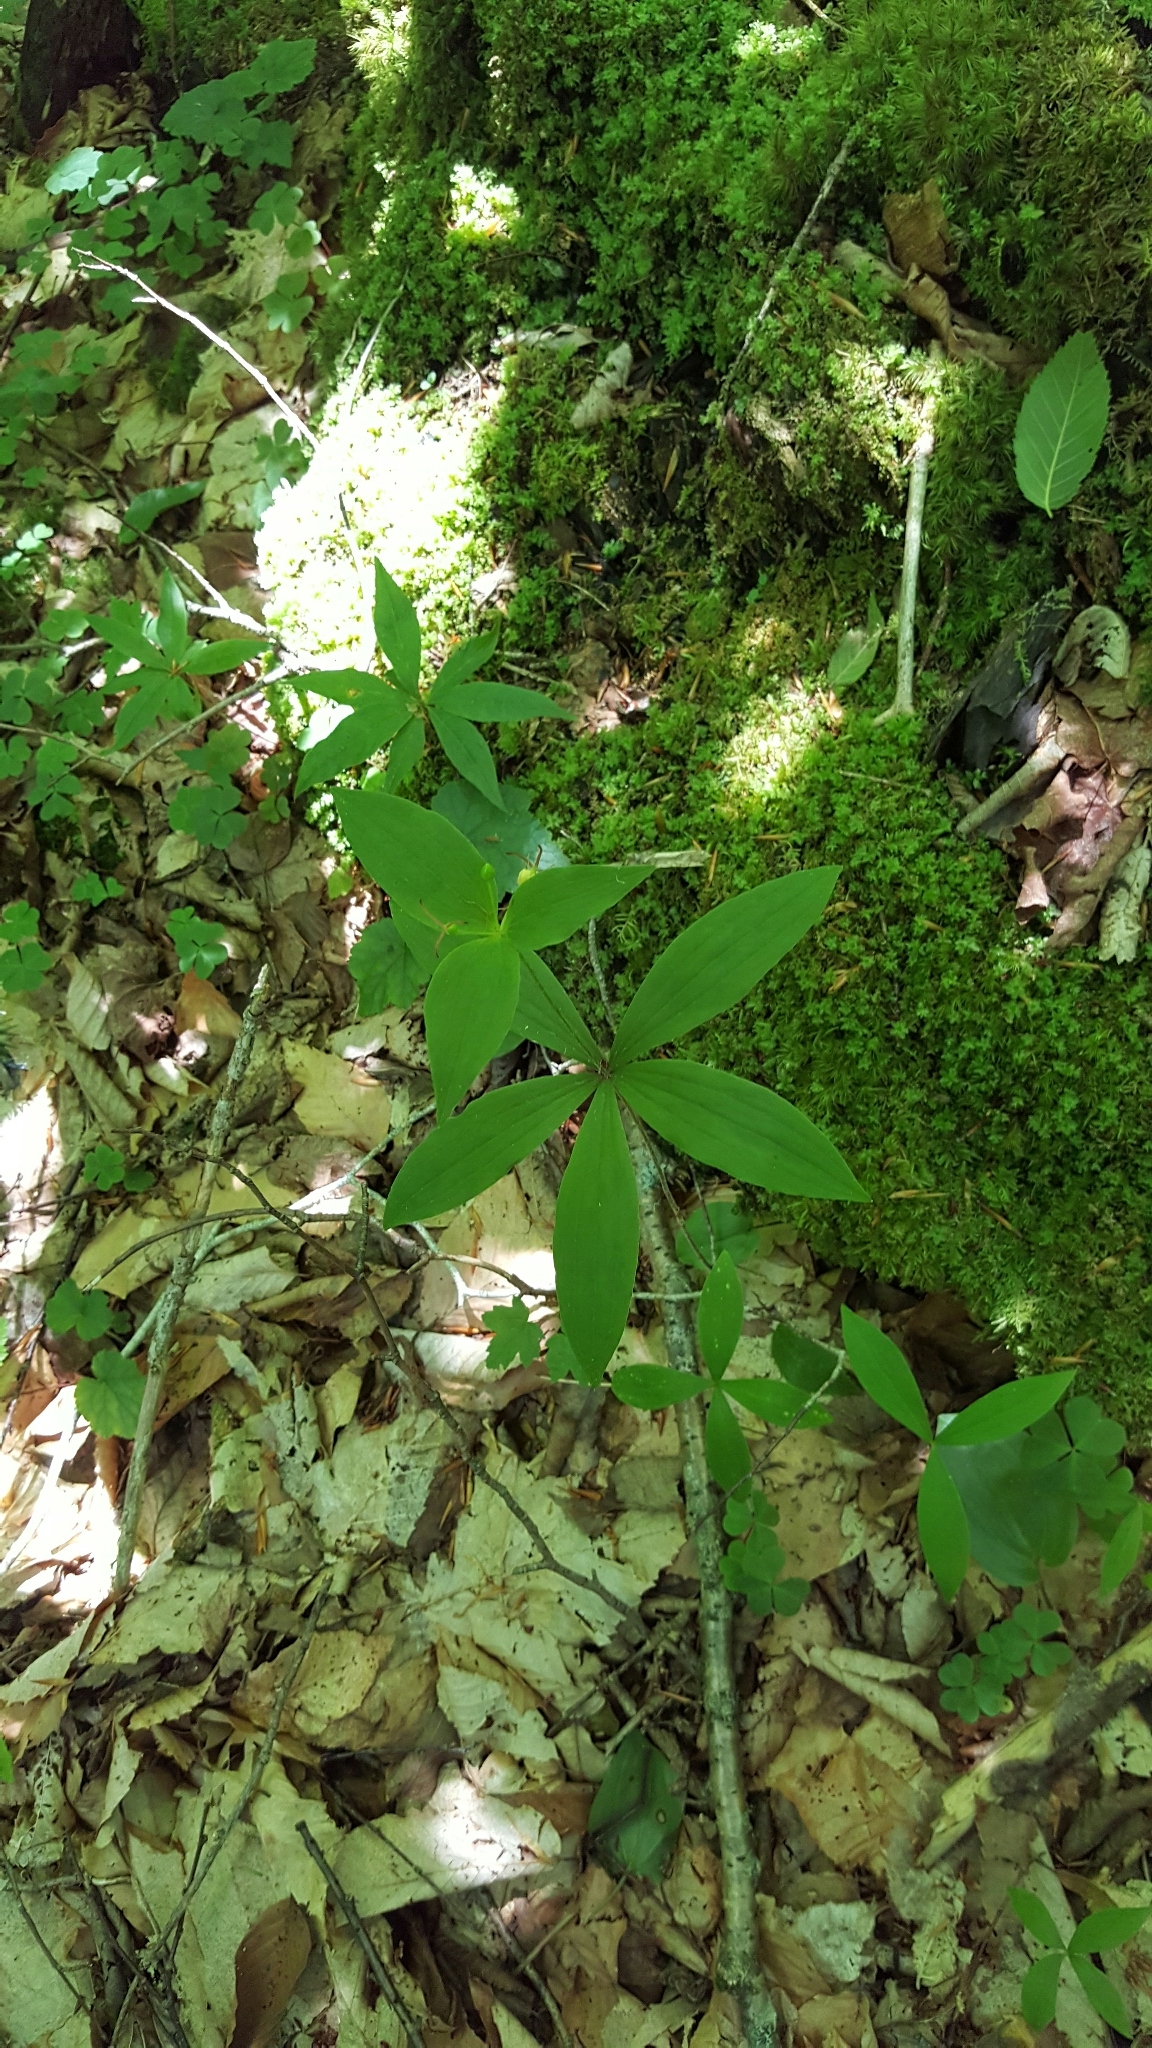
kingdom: Plantae
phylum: Tracheophyta
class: Liliopsida
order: Liliales
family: Liliaceae
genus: Medeola
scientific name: Medeola virginiana
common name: Indian cucumber-root
